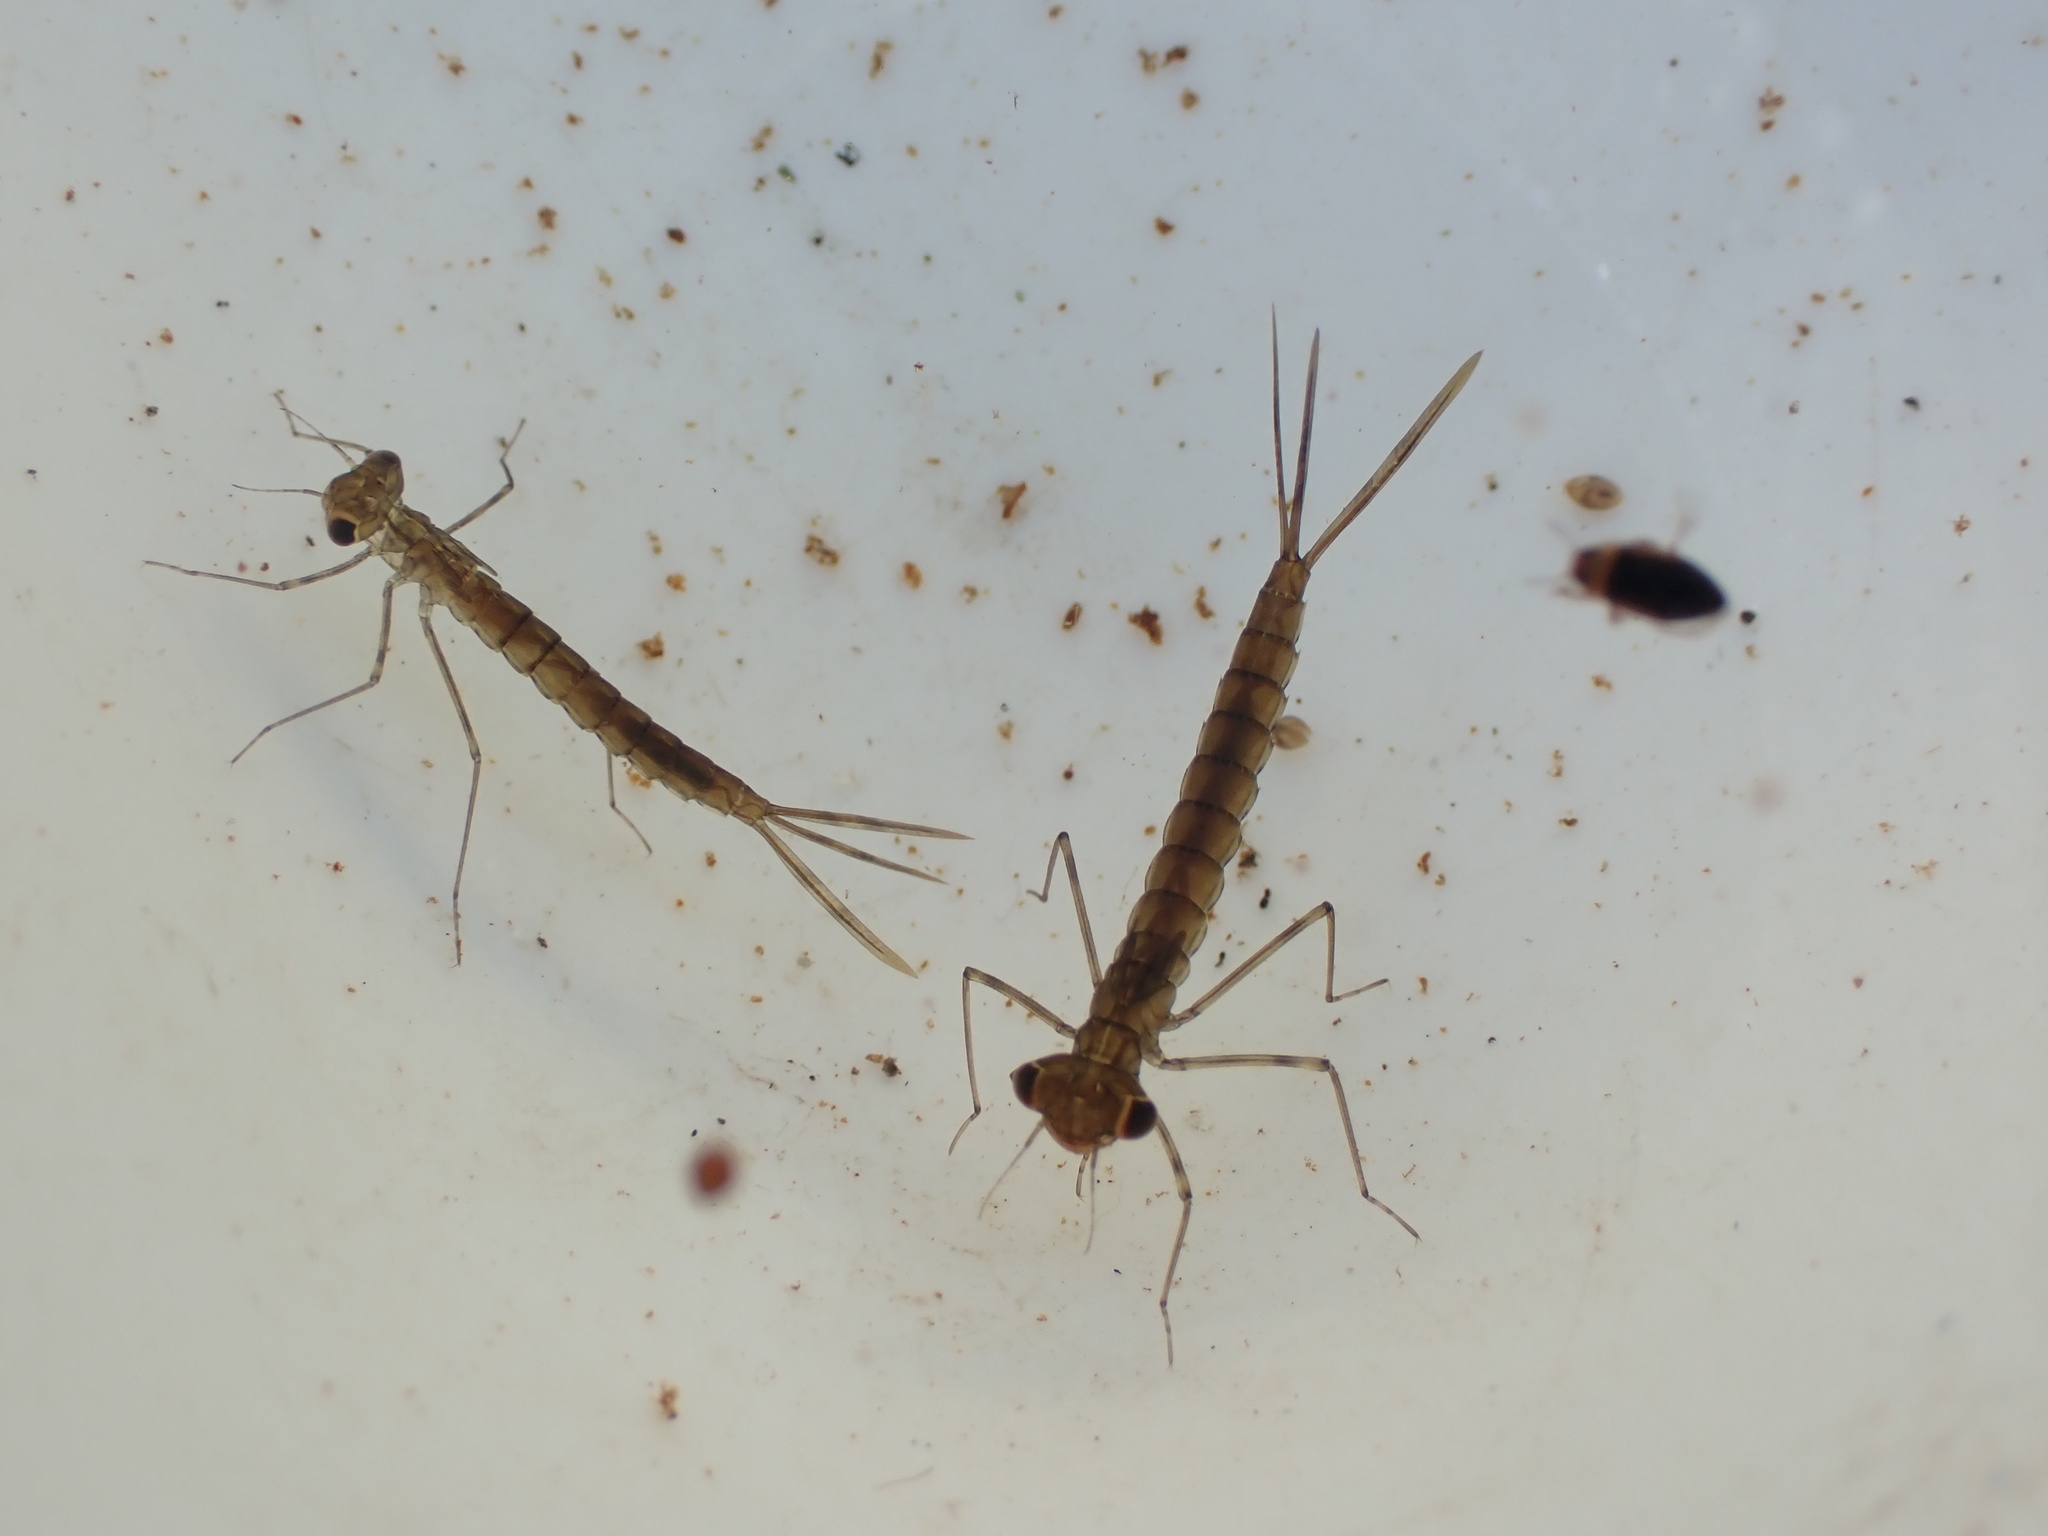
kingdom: Animalia
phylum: Arthropoda
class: Insecta
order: Odonata
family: Lestidae
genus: Austrolestes
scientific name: Austrolestes colensonis
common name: Blue damselfly
